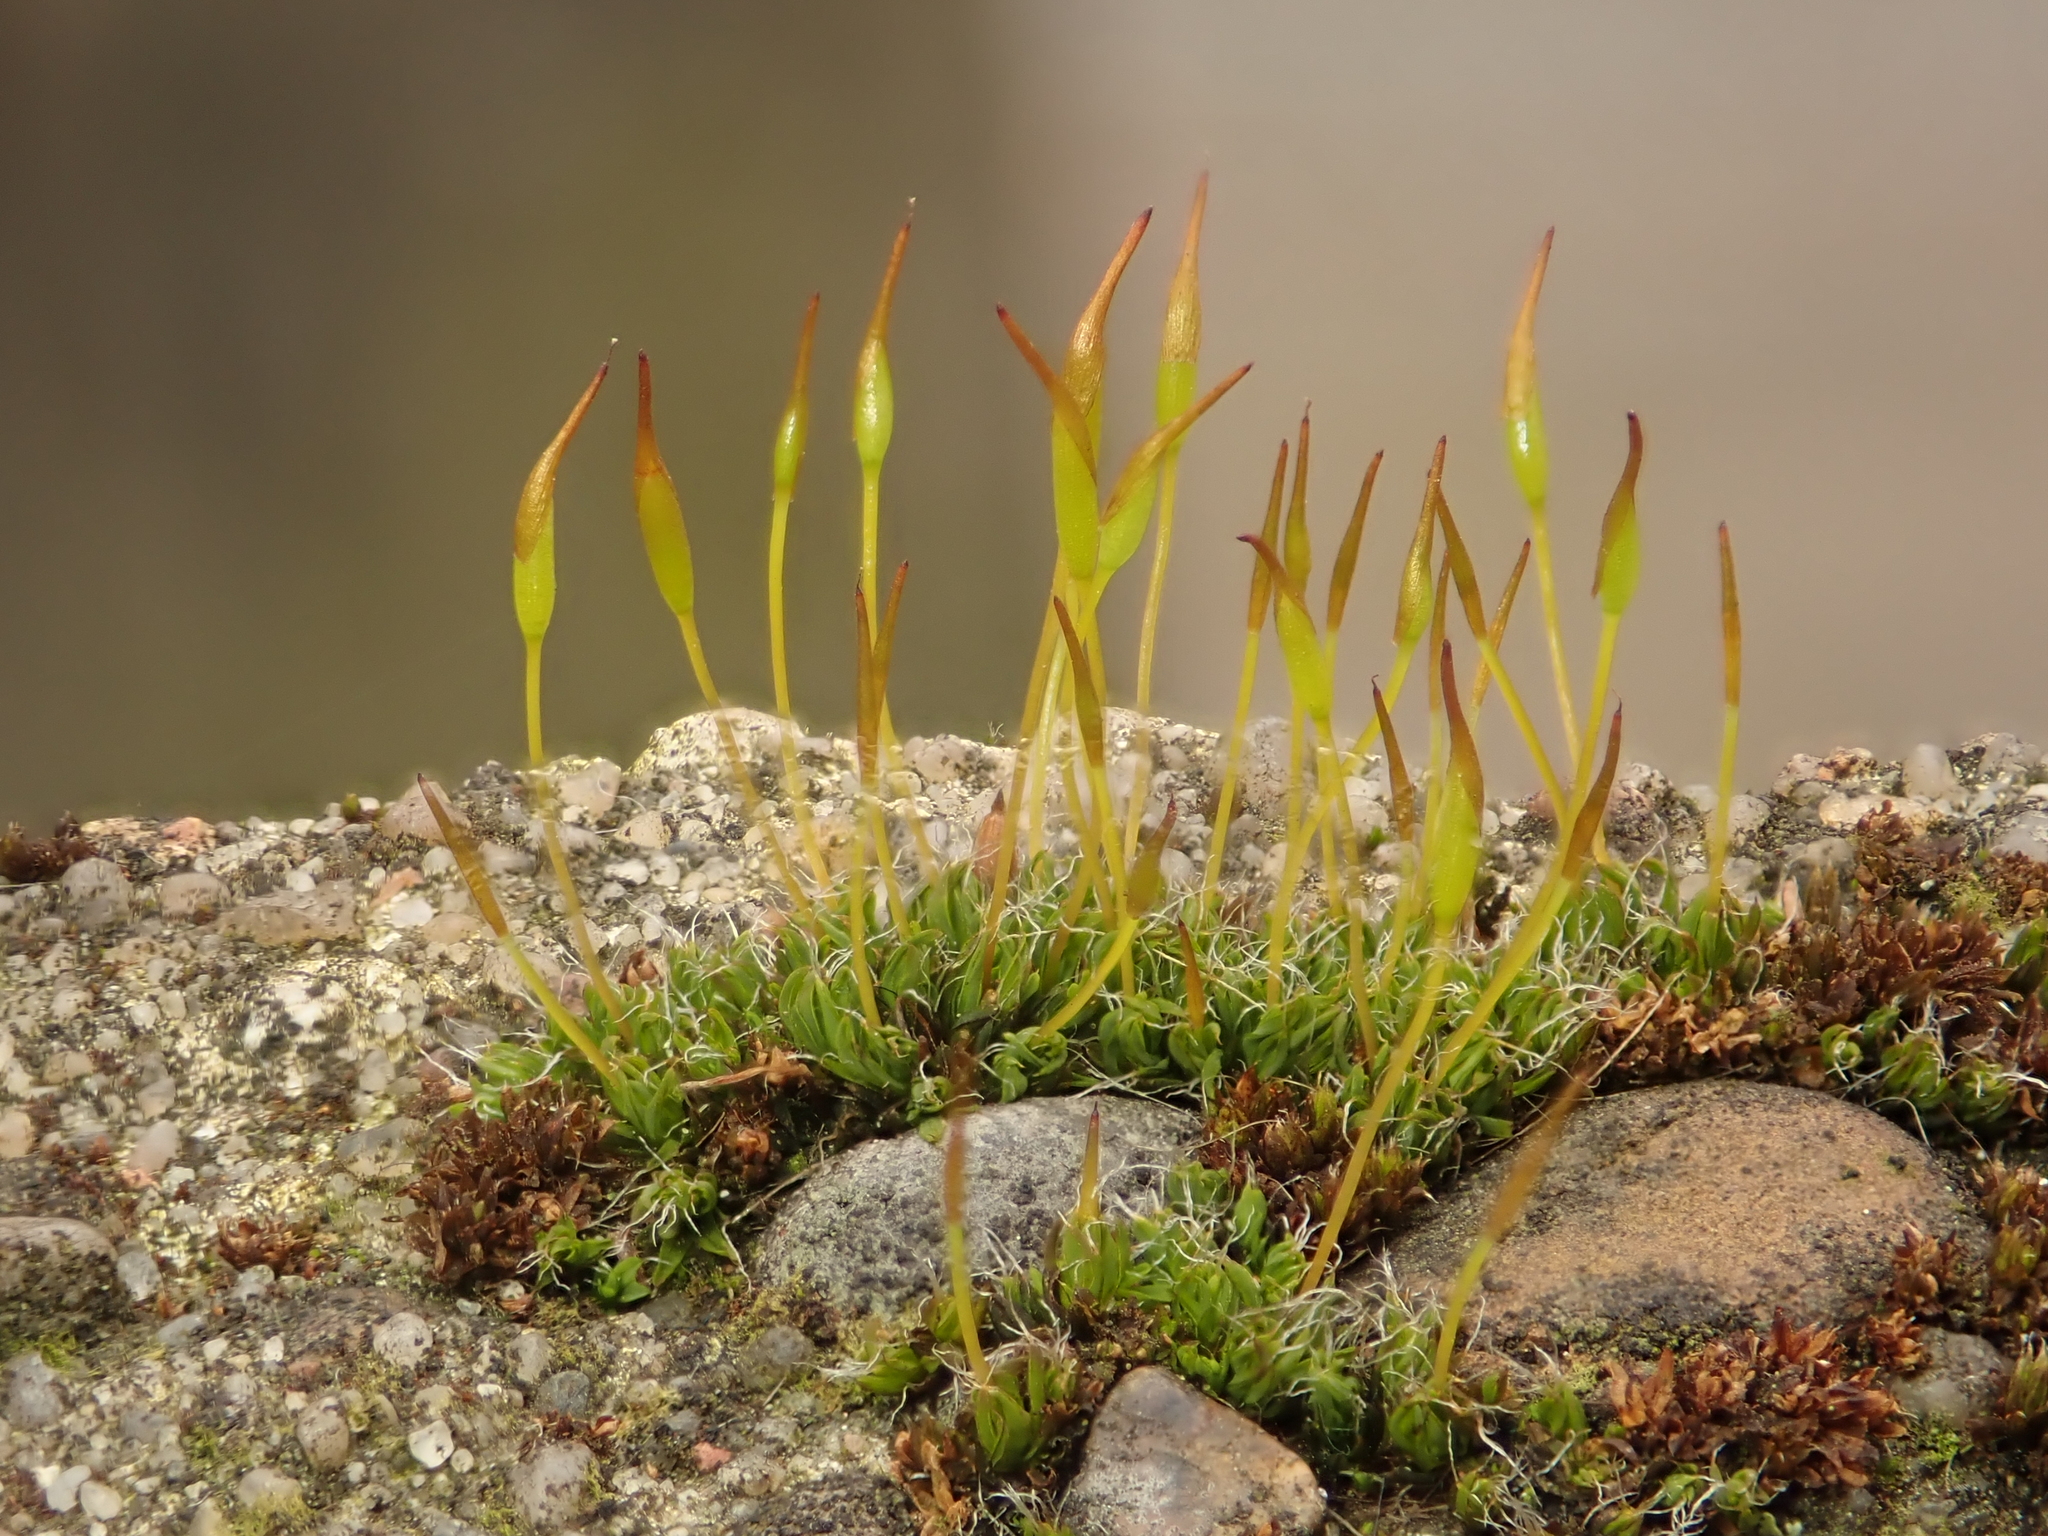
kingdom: Plantae
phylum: Bryophyta
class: Bryopsida
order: Pottiales
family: Pottiaceae
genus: Tortula
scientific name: Tortula muralis
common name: Wall screw-moss
